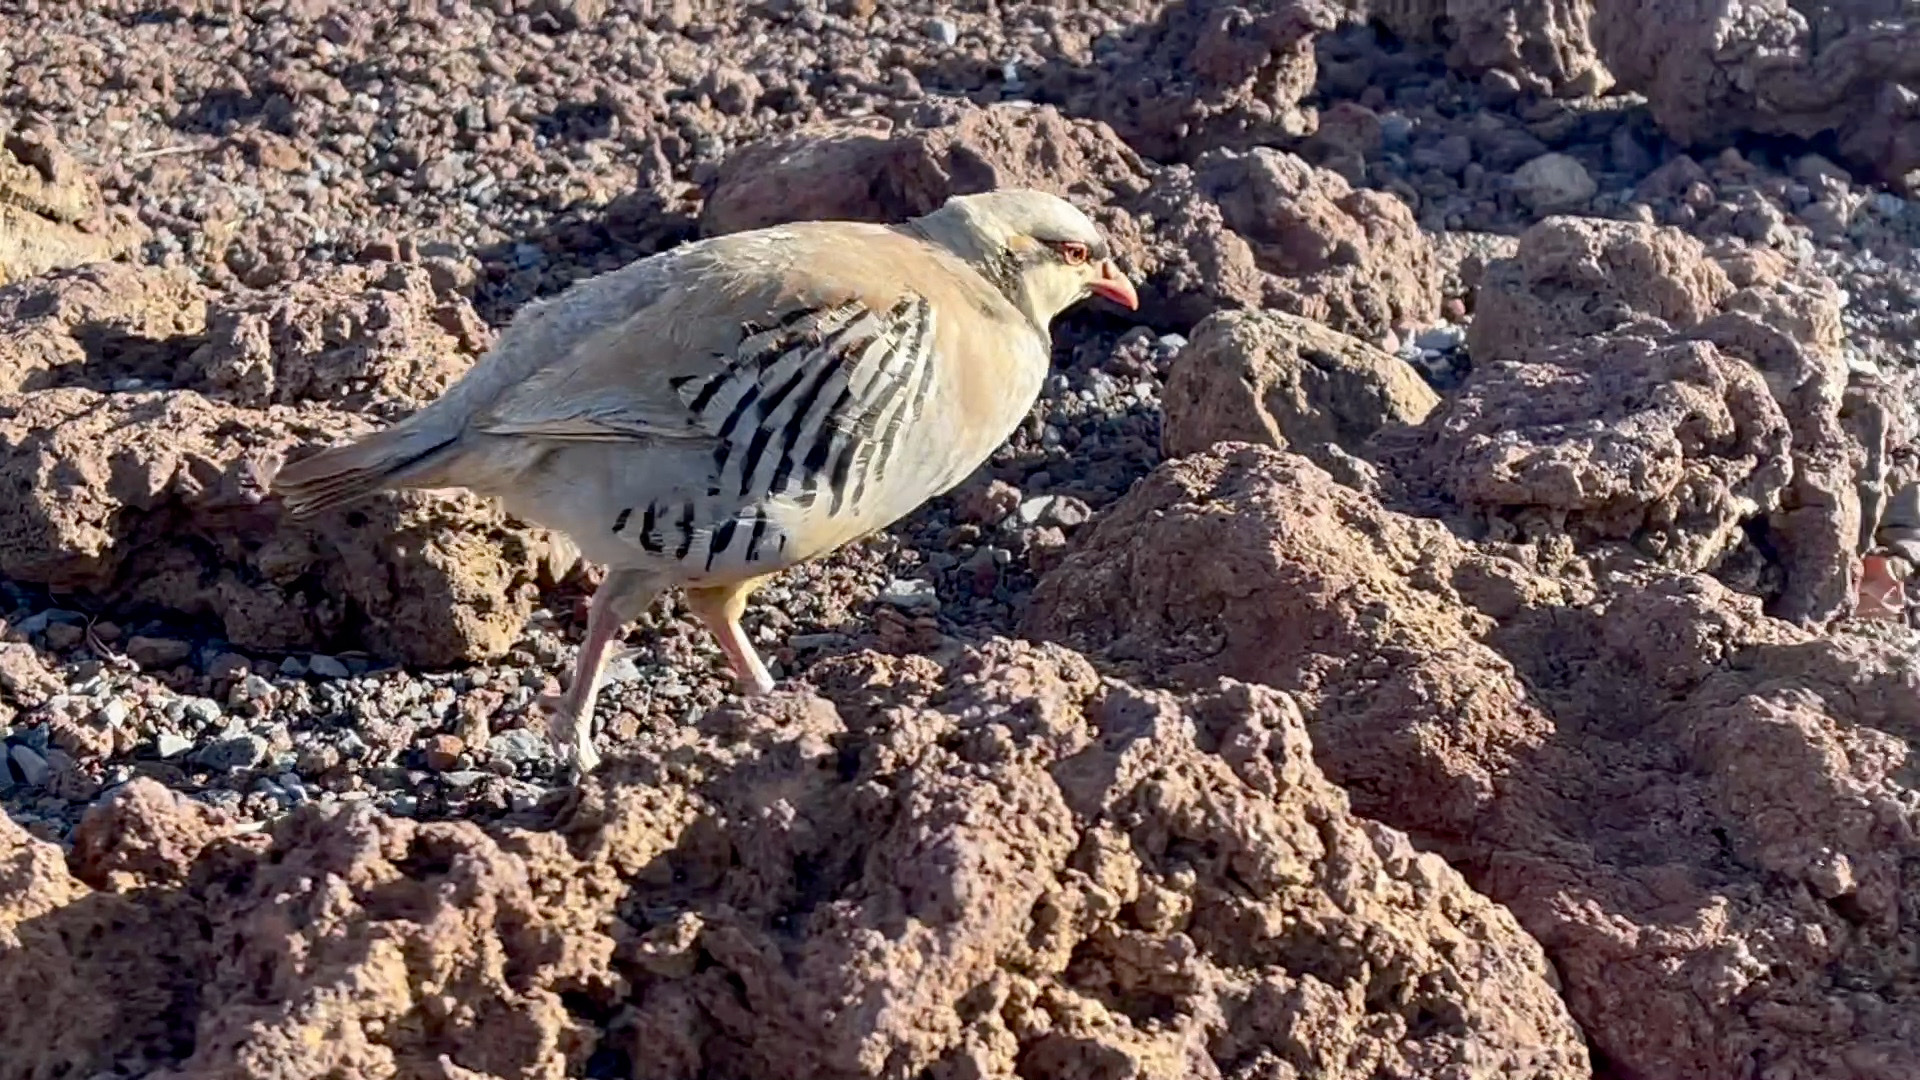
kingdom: Animalia
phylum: Chordata
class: Aves
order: Galliformes
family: Phasianidae
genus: Alectoris
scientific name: Alectoris chukar
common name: Chukar
